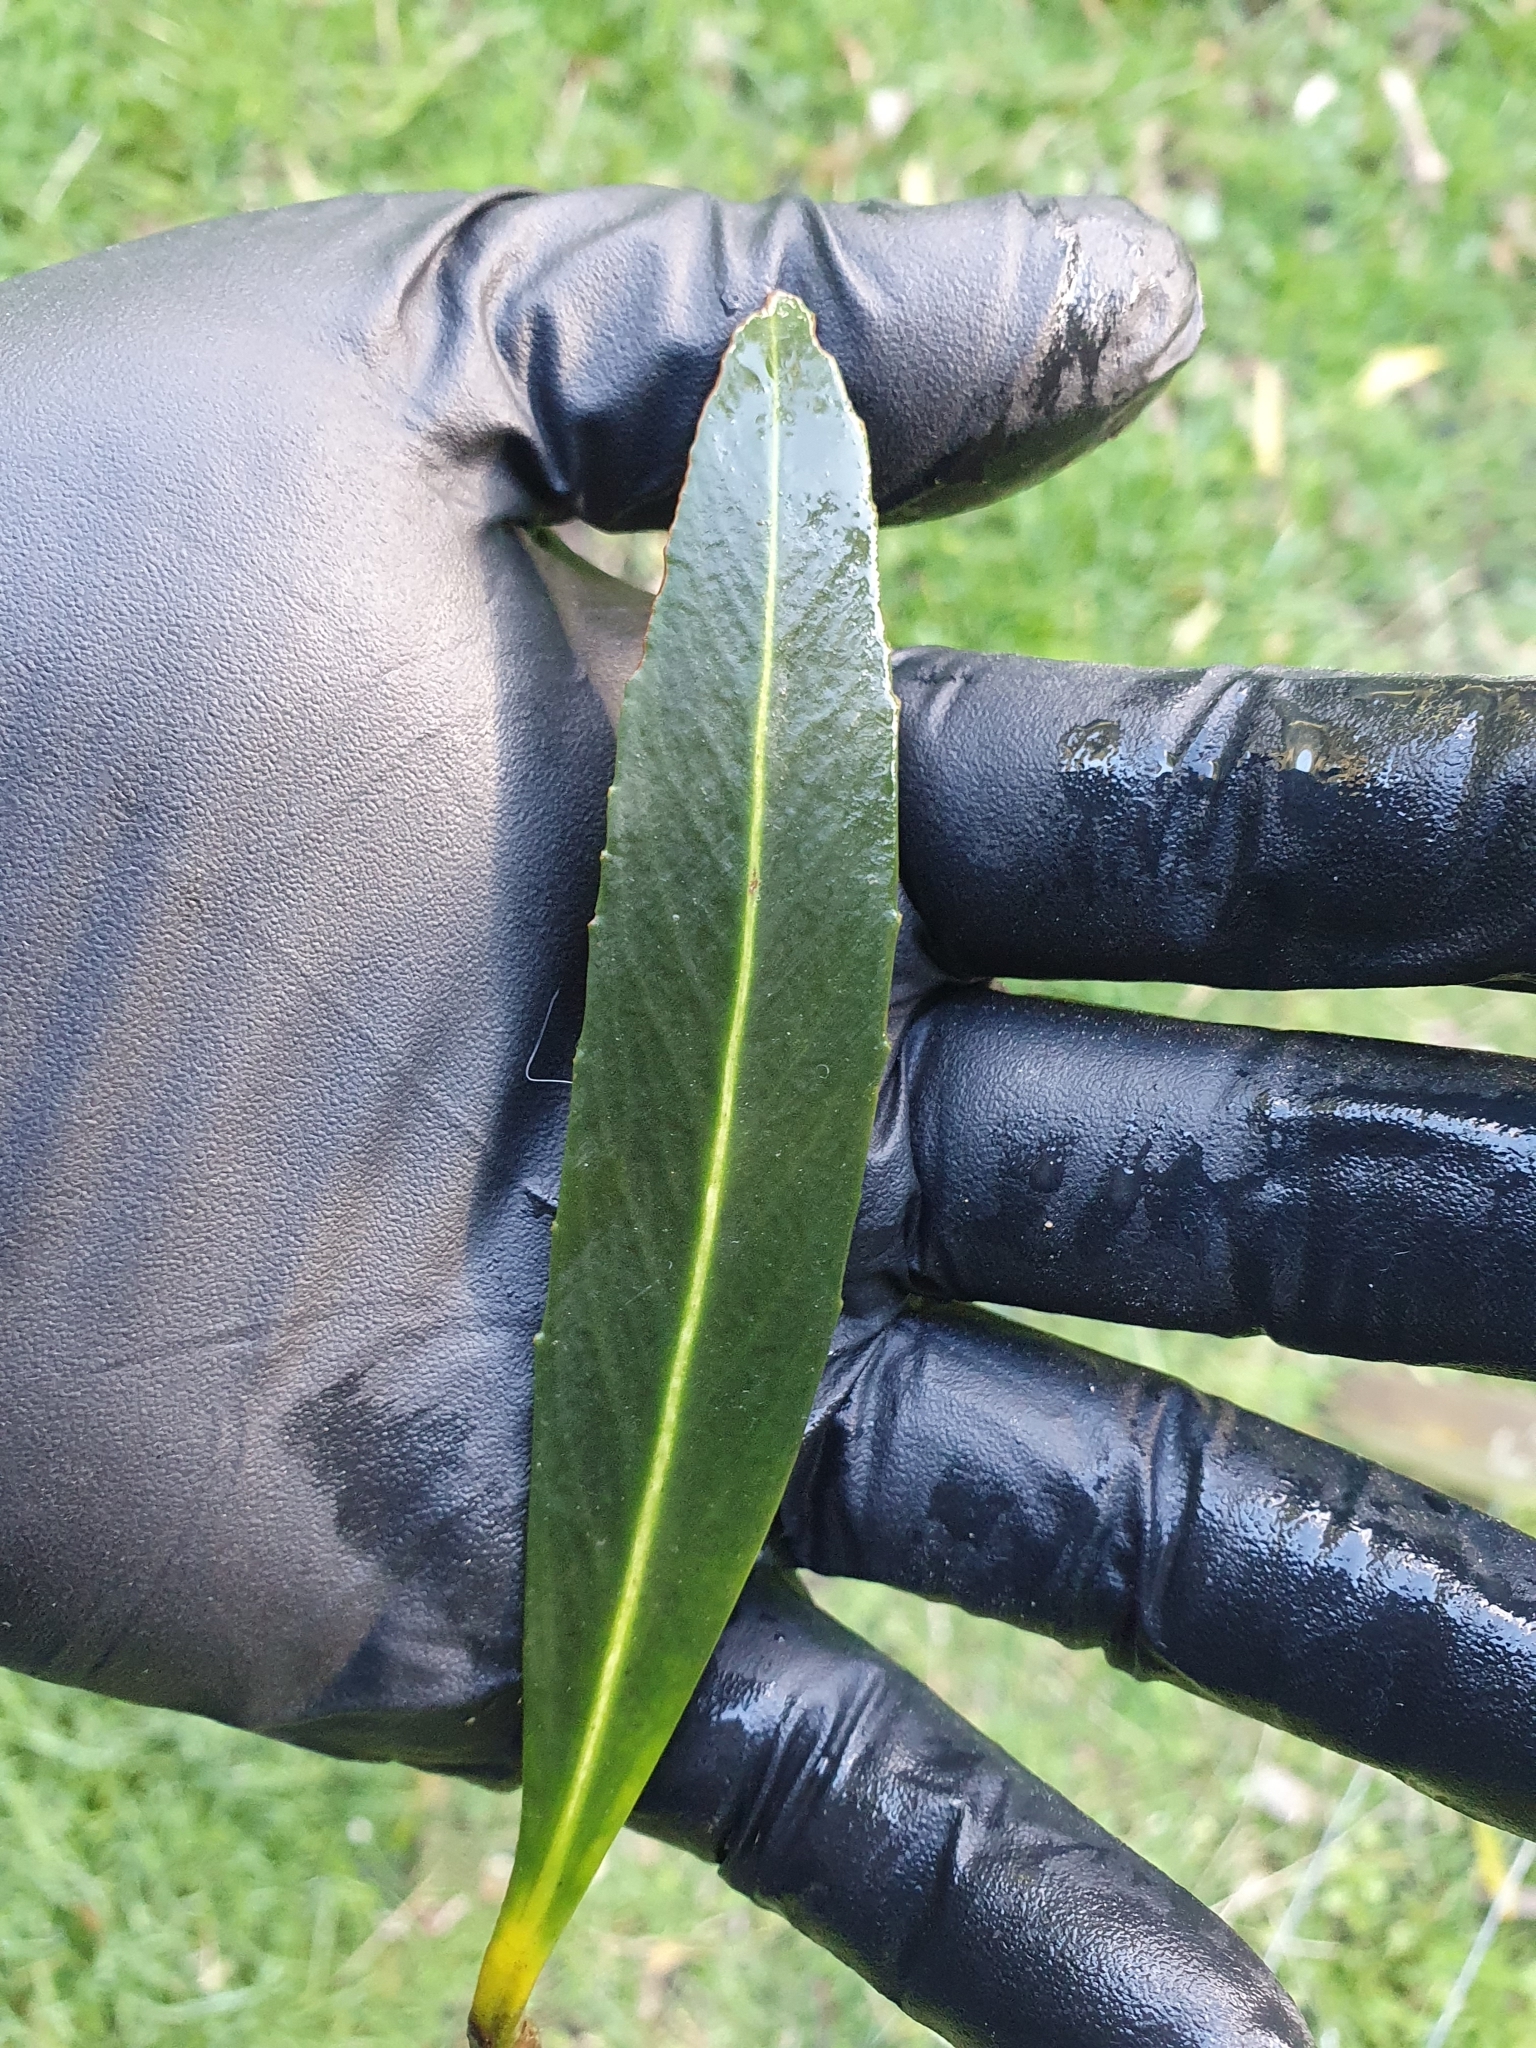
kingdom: Plantae
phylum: Tracheophyta
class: Magnoliopsida
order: Apiales
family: Araliaceae
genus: Pseudopanax
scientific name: Pseudopanax crassifolius
